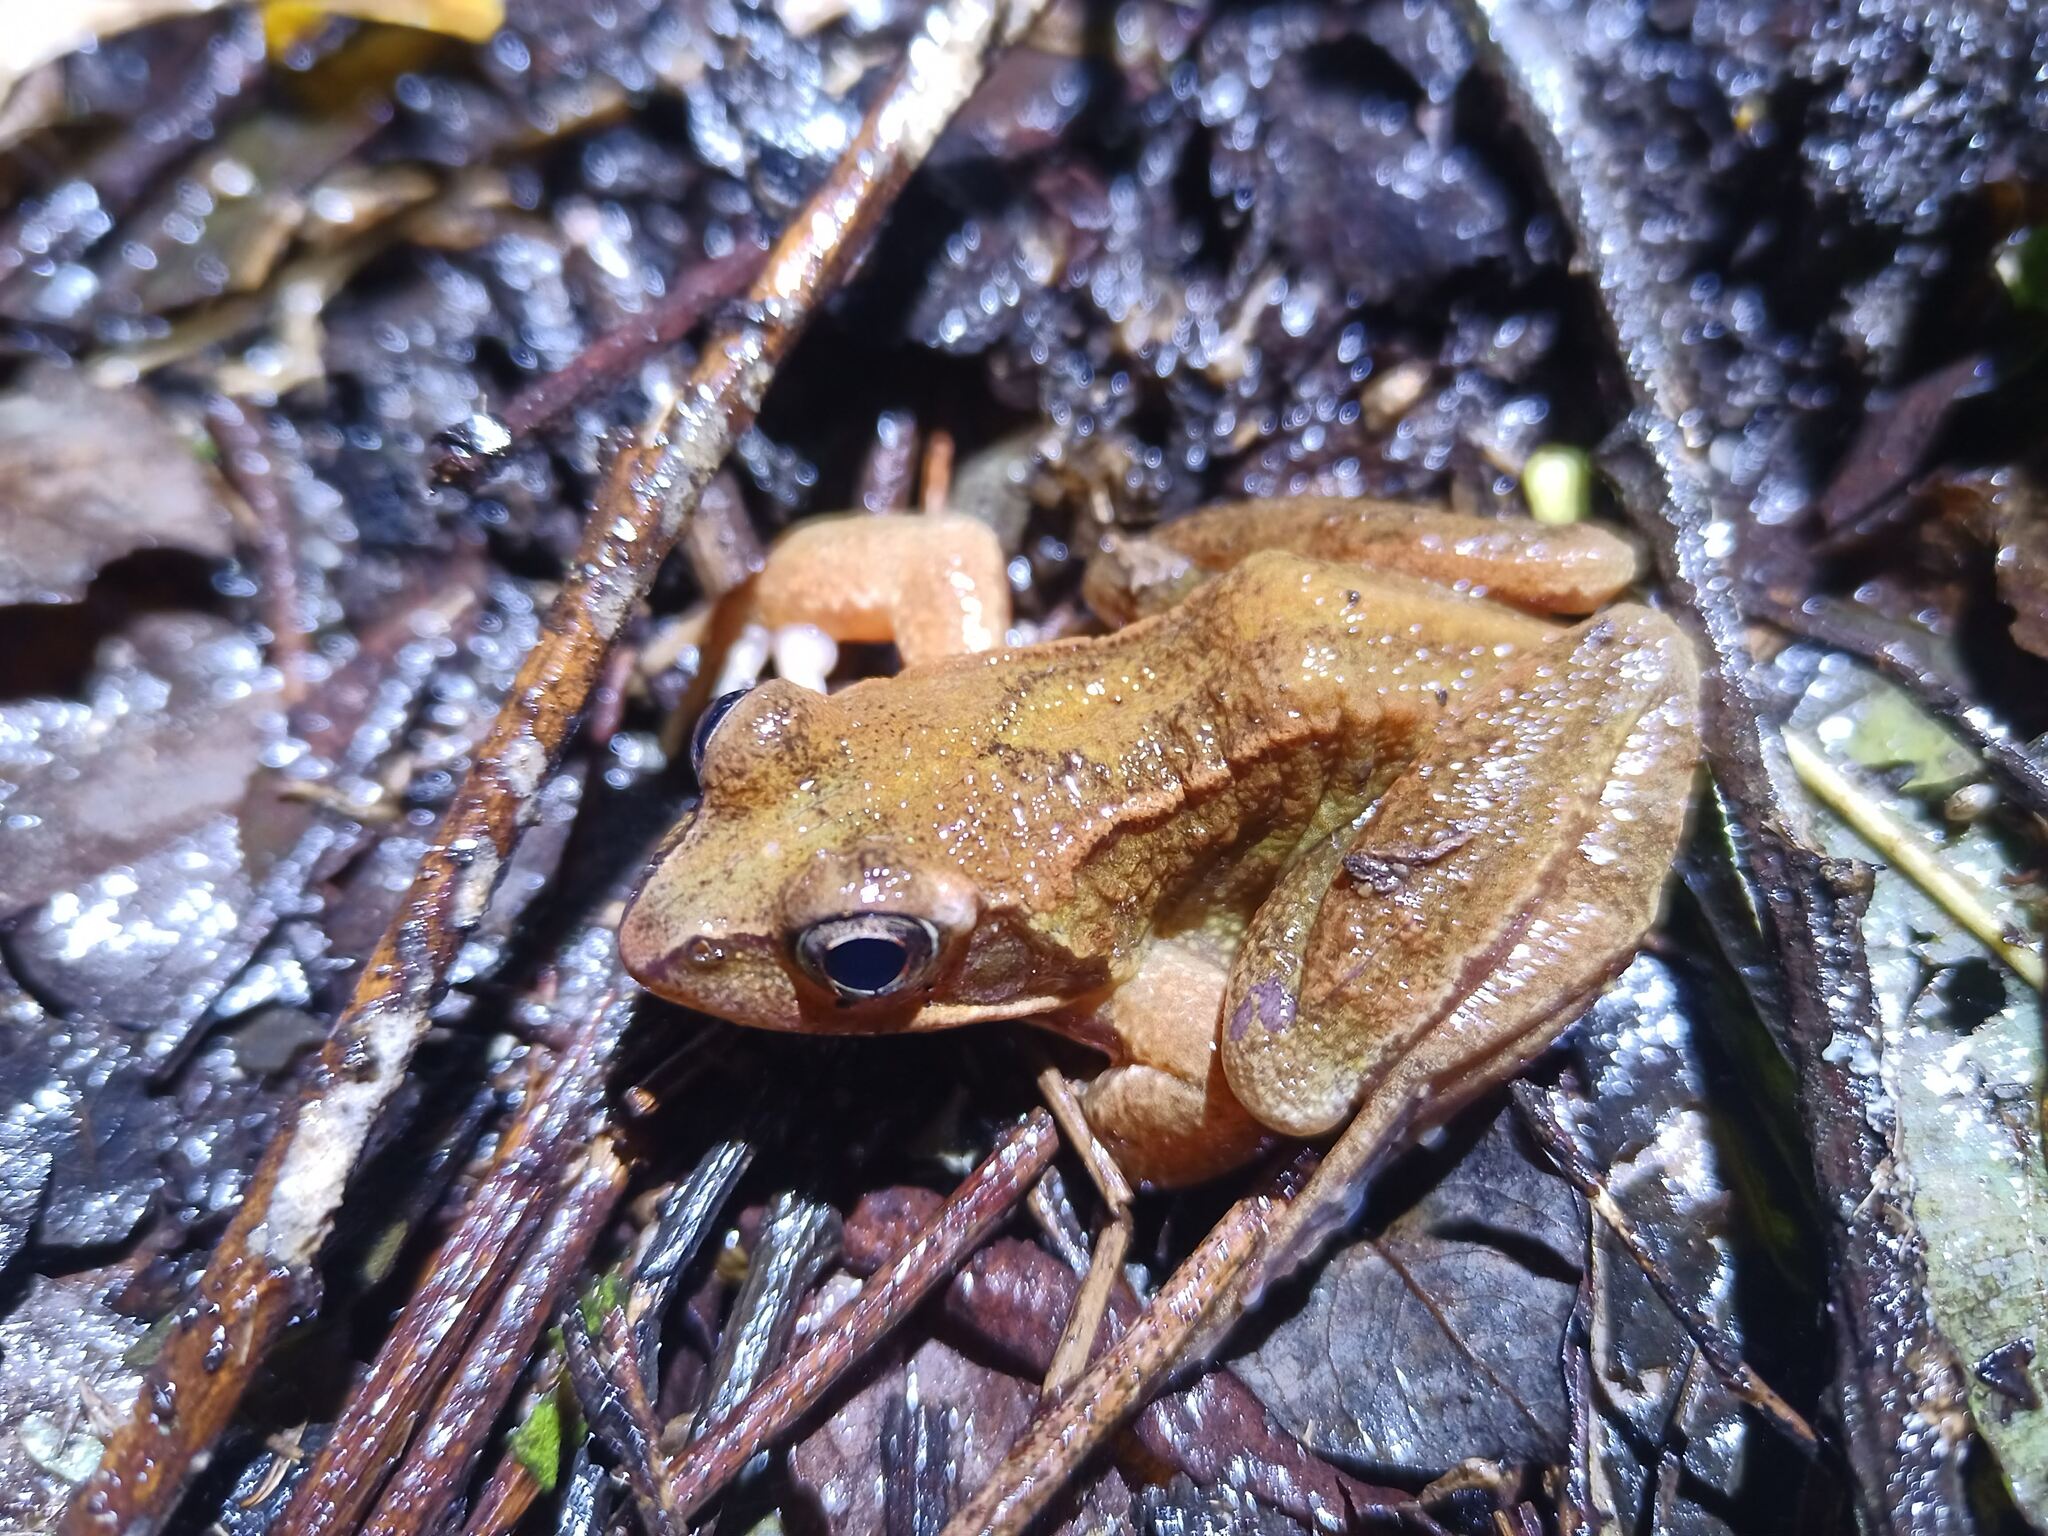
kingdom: Animalia
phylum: Chordata
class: Amphibia
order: Anura
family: Ranidae
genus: Rana
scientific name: Rana temporaria
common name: Common frog
